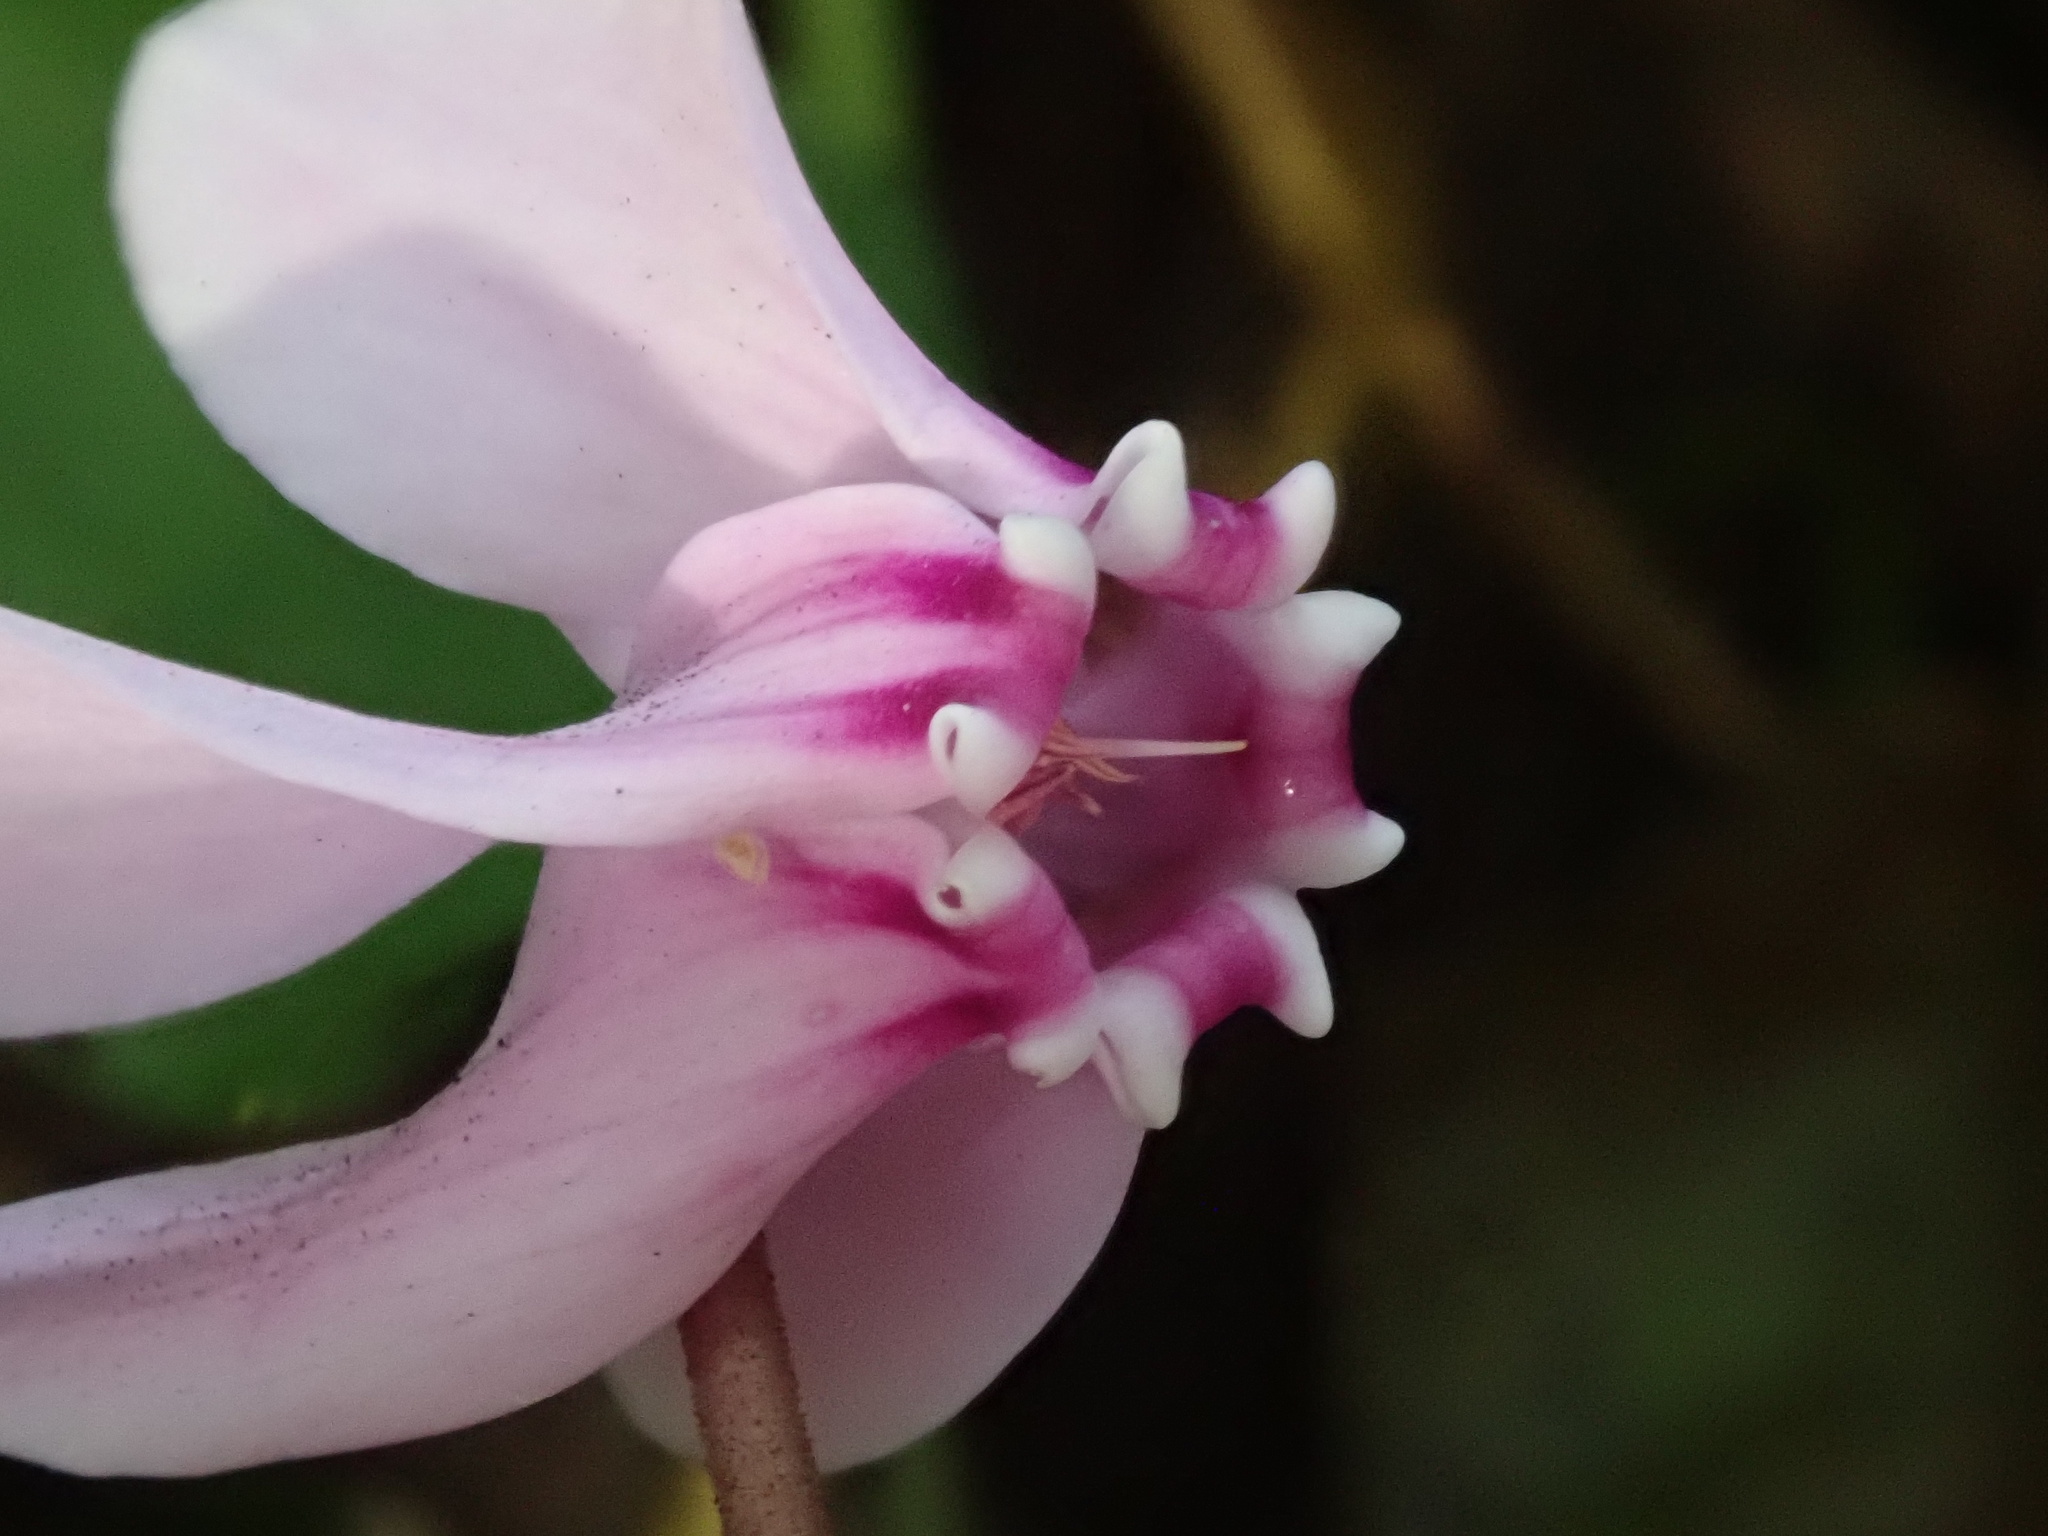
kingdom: Plantae
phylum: Tracheophyta
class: Magnoliopsida
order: Ericales
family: Primulaceae
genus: Cyclamen
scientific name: Cyclamen hederifolium
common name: Sowbread
